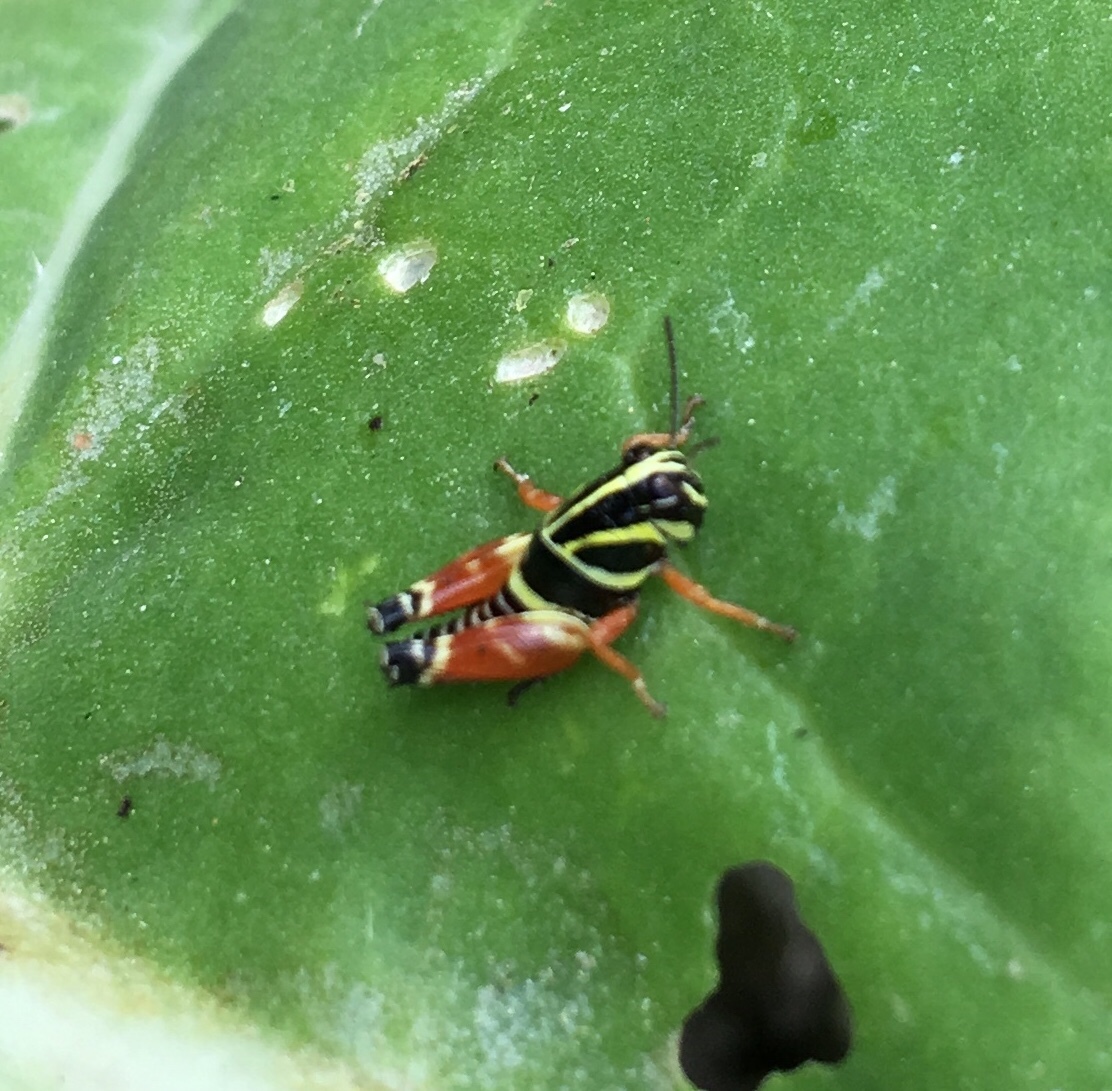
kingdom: Animalia
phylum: Arthropoda
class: Insecta
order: Orthoptera
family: Acrididae
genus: Aidemona
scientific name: Aidemona azteca
